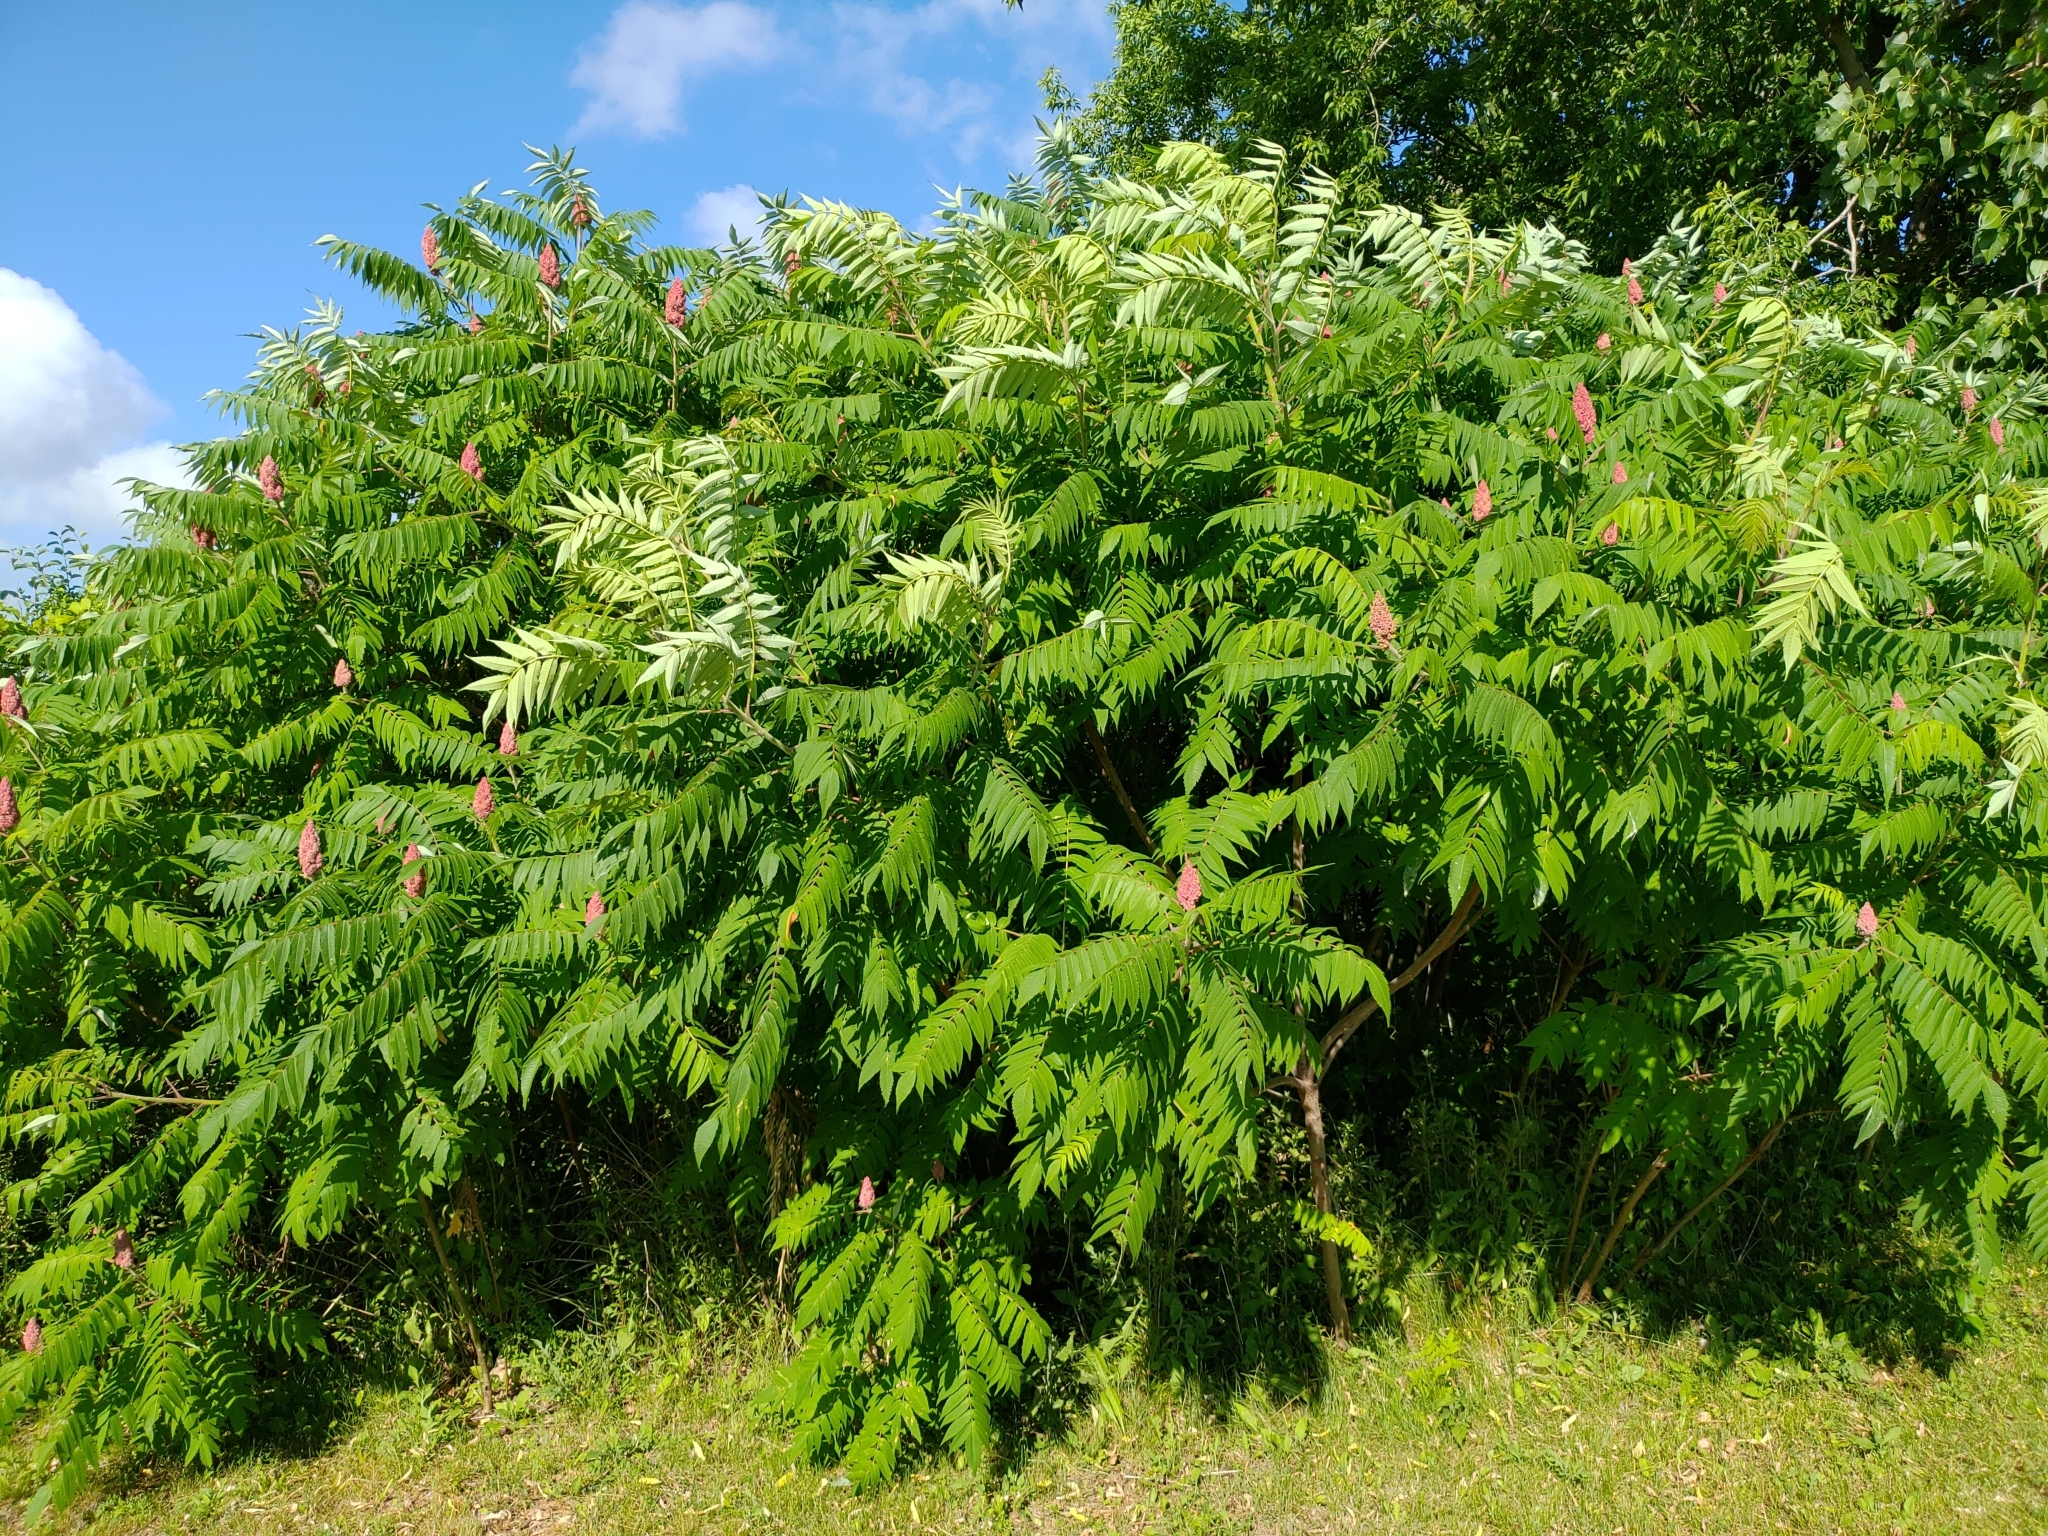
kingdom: Plantae
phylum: Tracheophyta
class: Magnoliopsida
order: Sapindales
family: Anacardiaceae
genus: Rhus
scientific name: Rhus typhina
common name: Staghorn sumac
